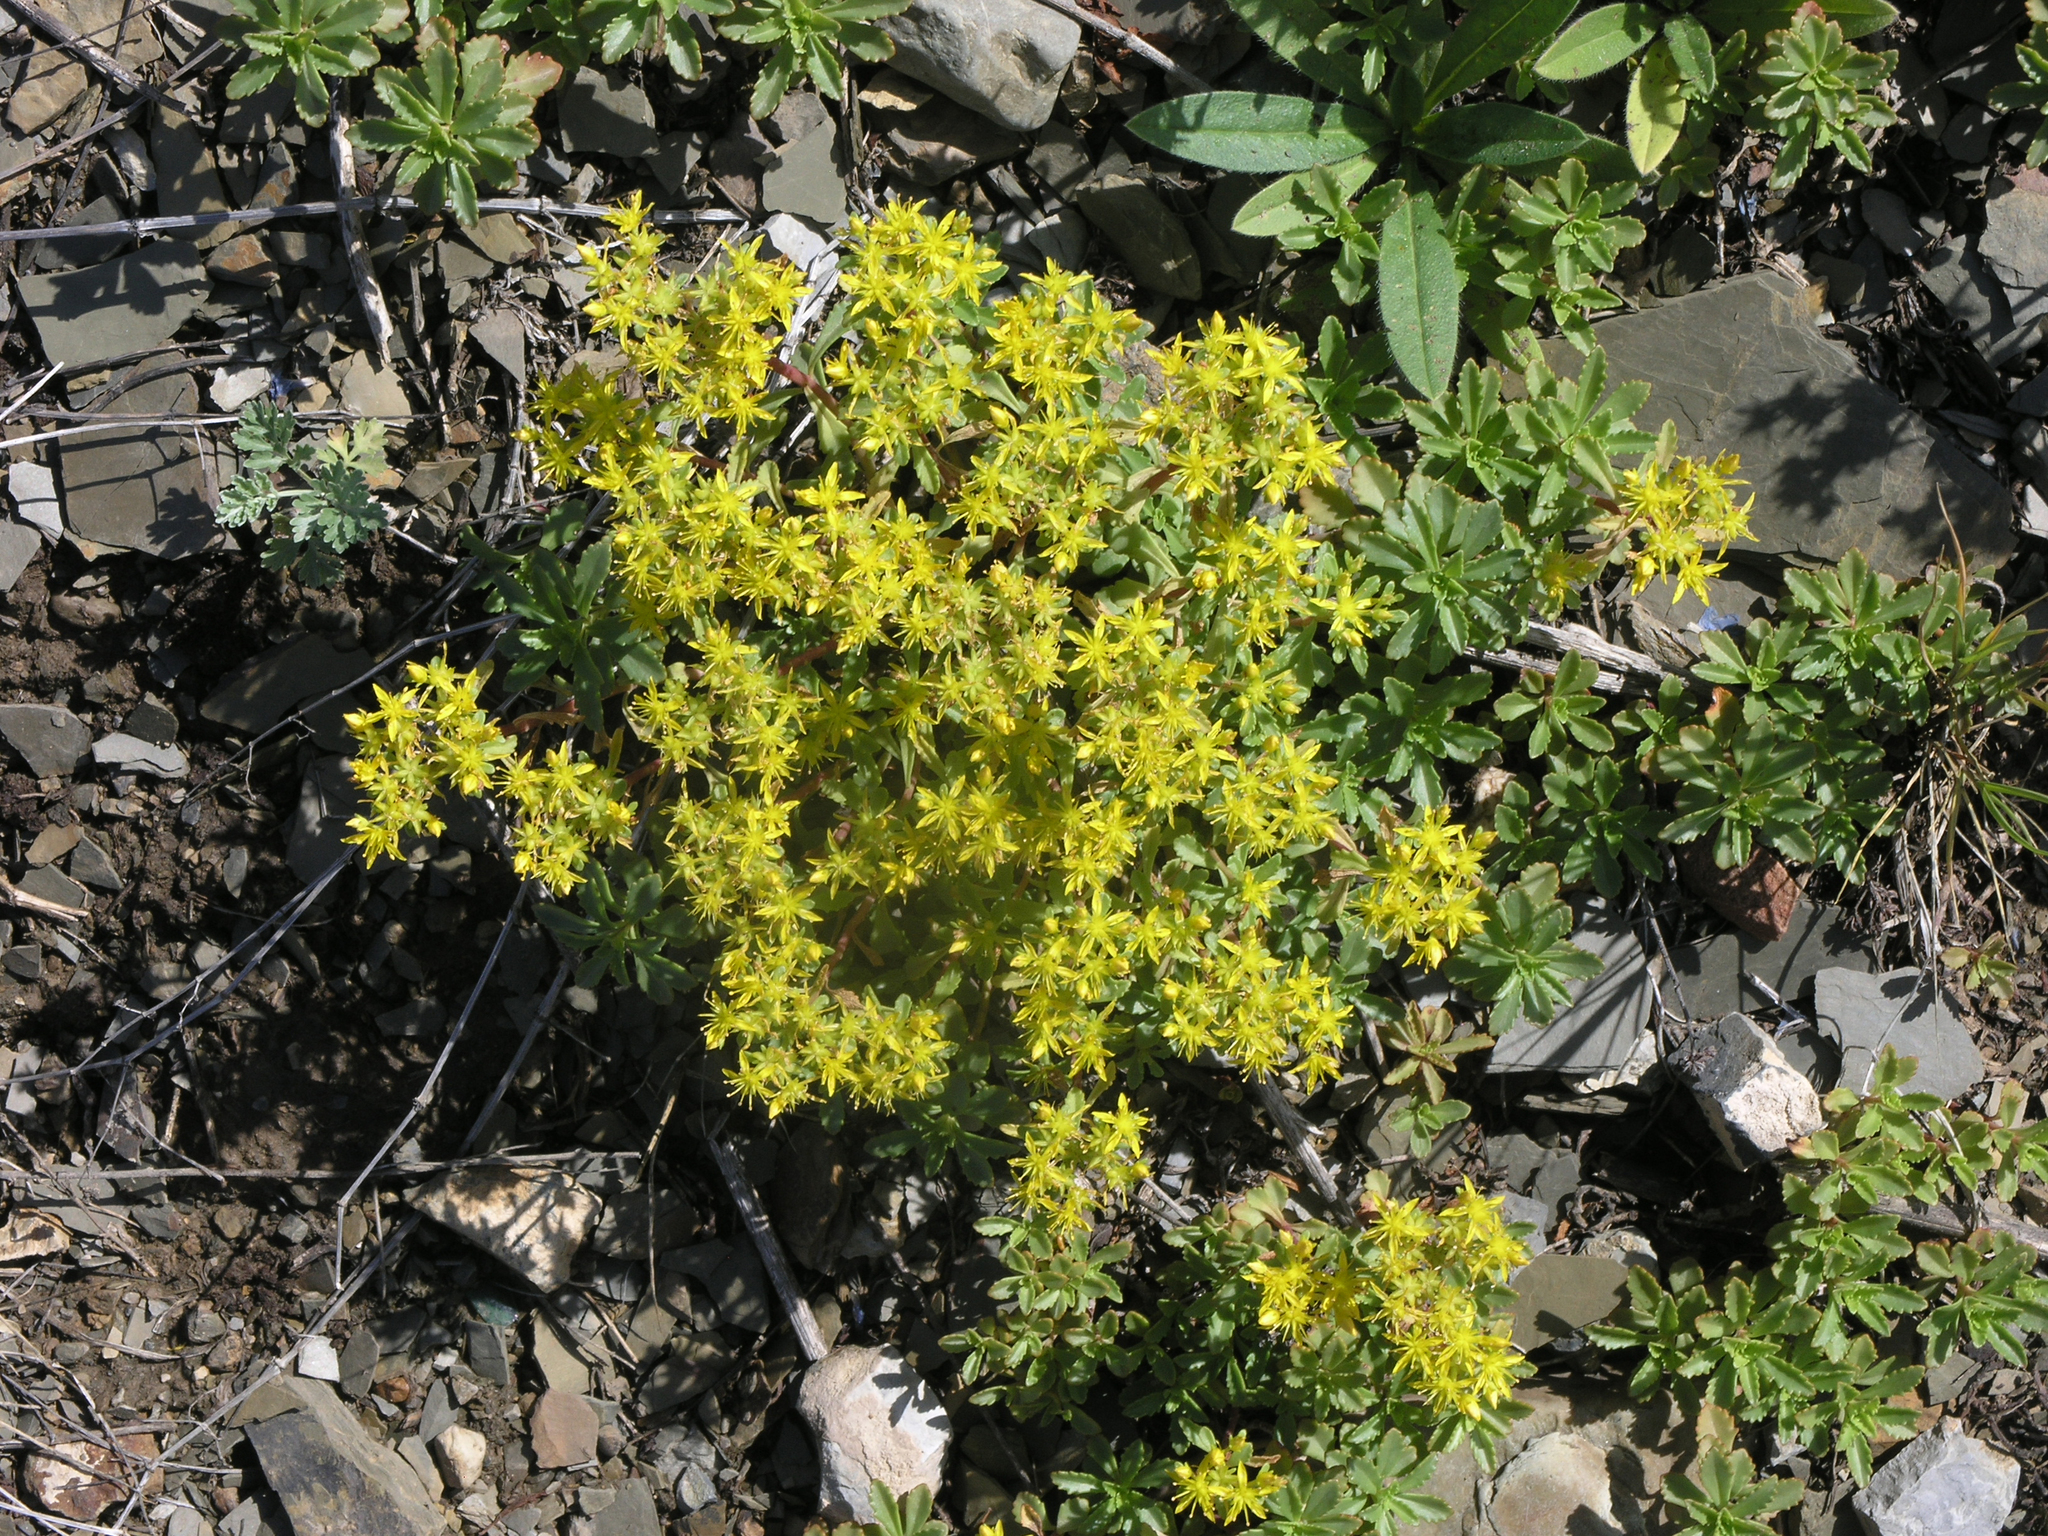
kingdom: Plantae
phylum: Tracheophyta
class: Magnoliopsida
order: Saxifragales
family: Crassulaceae
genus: Phedimus
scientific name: Phedimus hybridus
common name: Hybrid stonecrop
